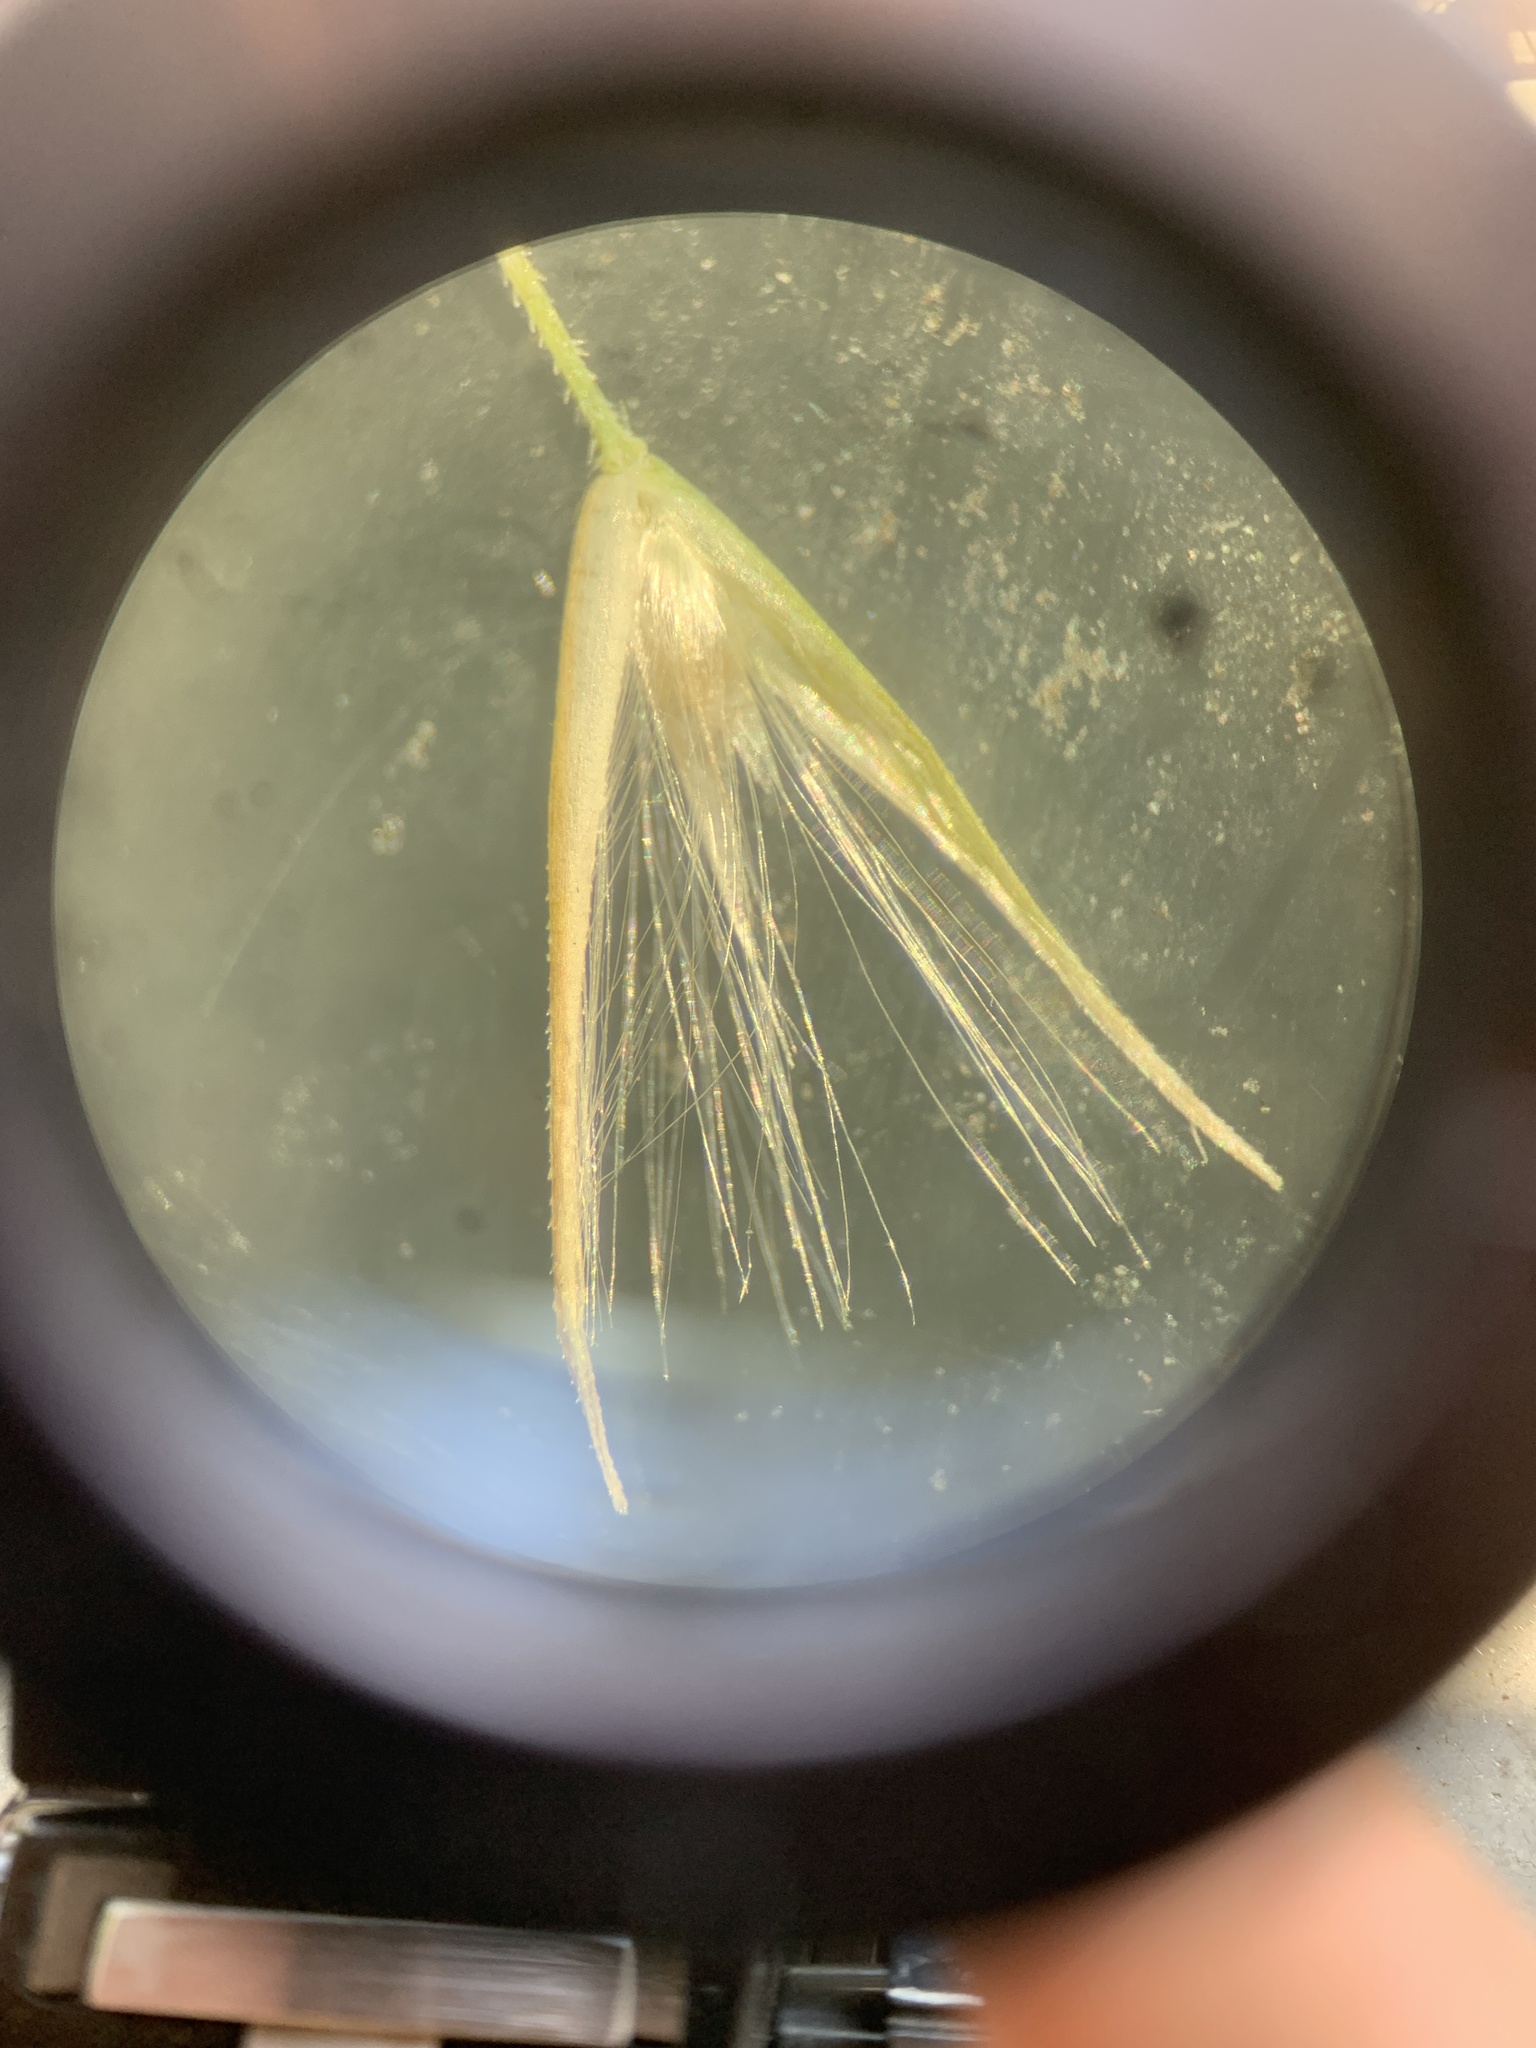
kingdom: Plantae
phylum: Tracheophyta
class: Liliopsida
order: Poales
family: Poaceae
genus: Calamagrostis
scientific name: Calamagrostis epigejos
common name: Wood small-reed
